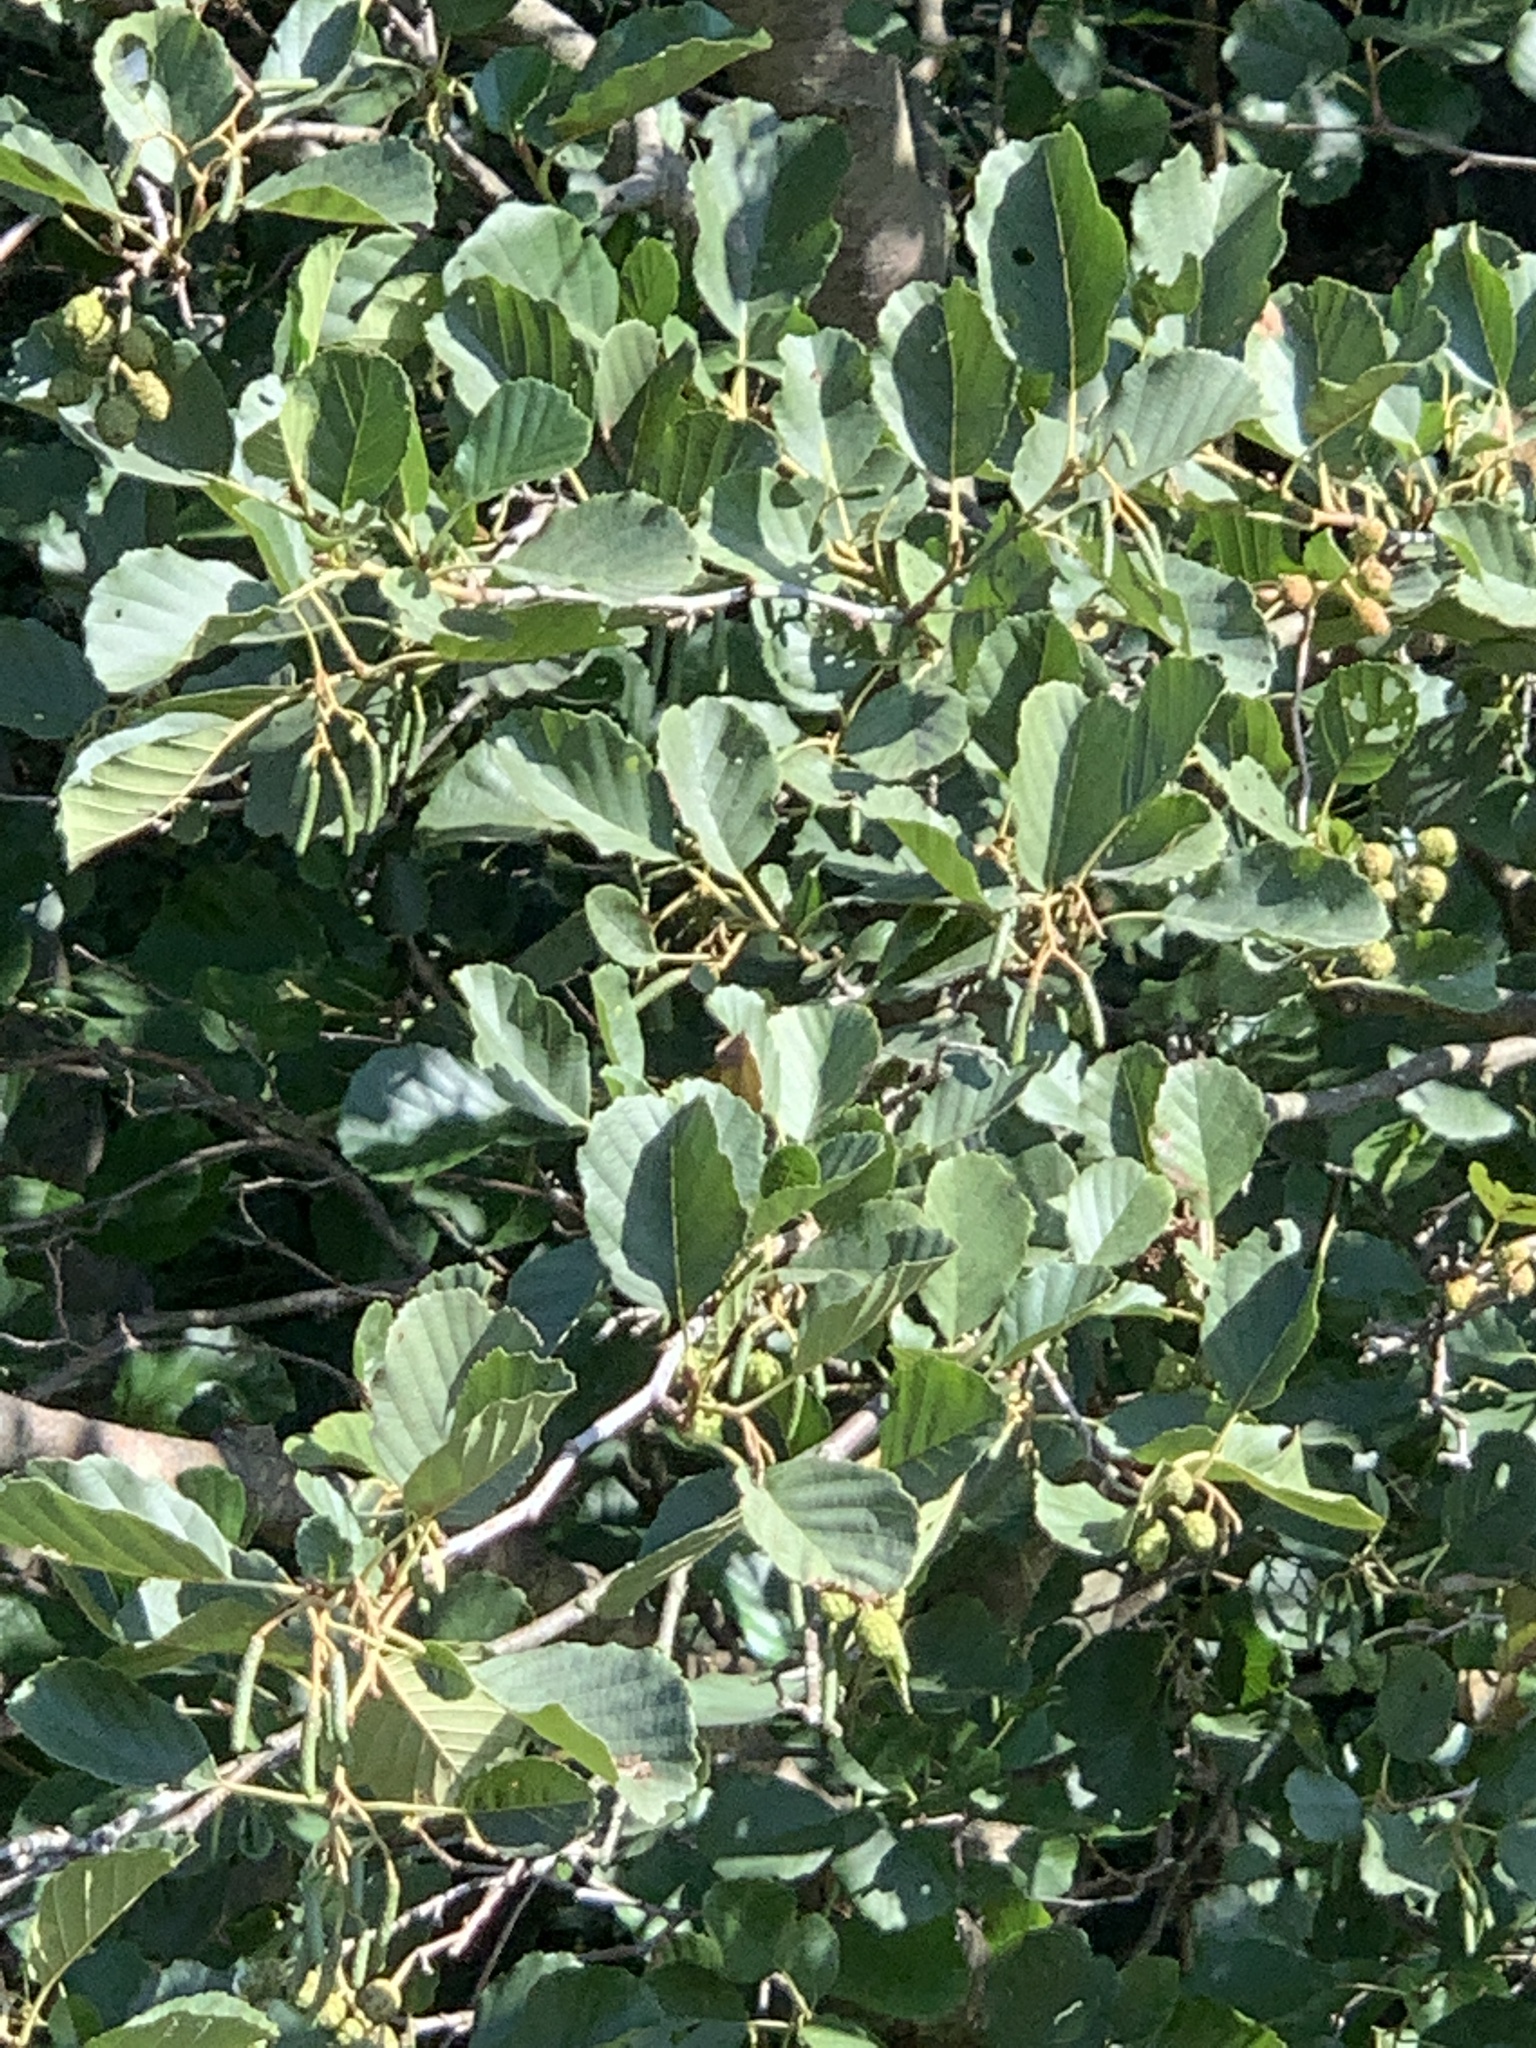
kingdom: Plantae
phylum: Tracheophyta
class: Magnoliopsida
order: Fagales
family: Betulaceae
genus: Alnus
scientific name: Alnus glutinosa
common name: Black alder
